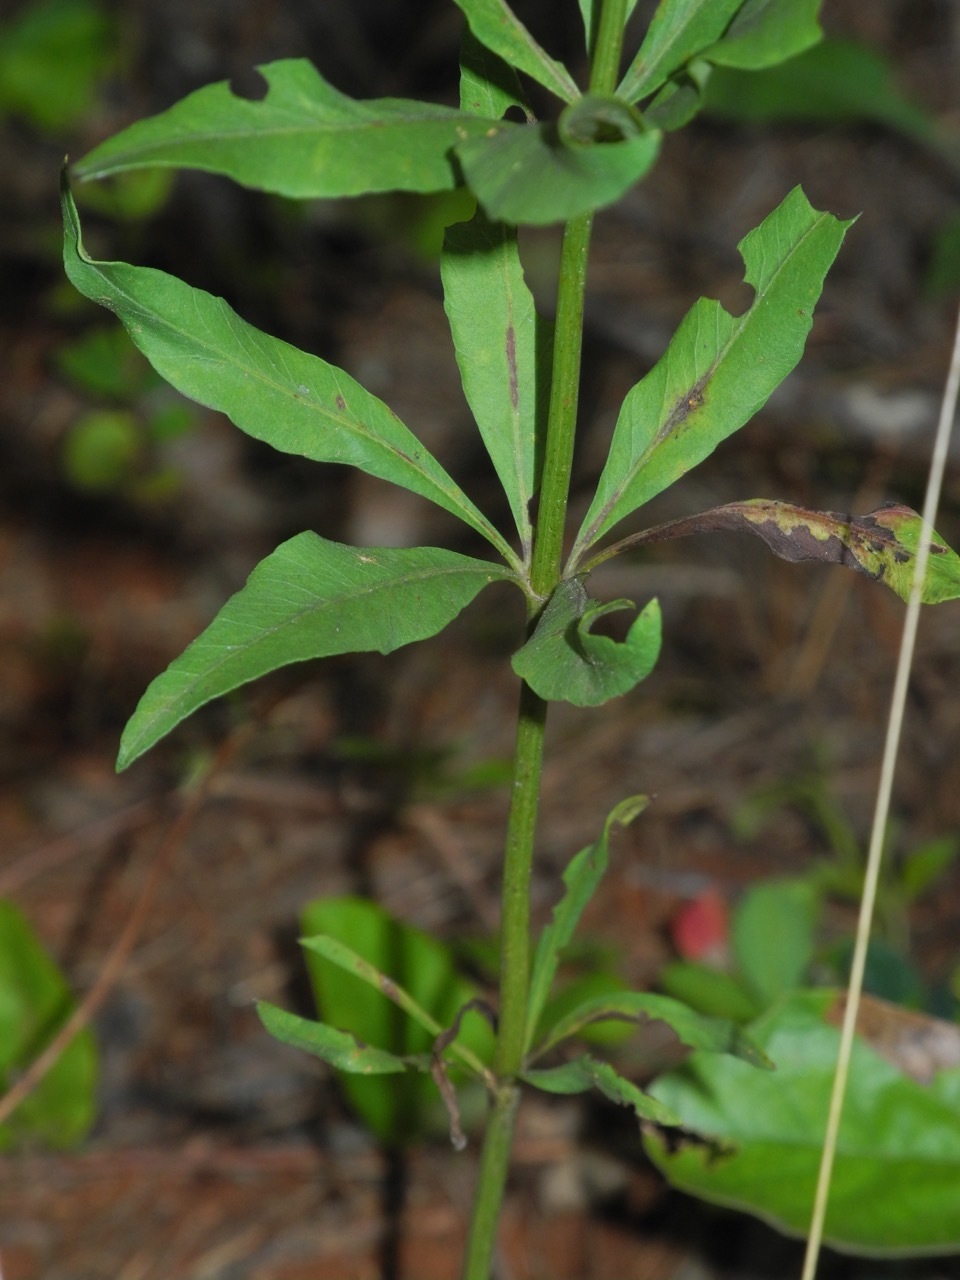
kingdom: Plantae
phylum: Tracheophyta
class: Magnoliopsida
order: Asterales
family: Asteraceae
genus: Coreopsis
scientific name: Coreopsis major
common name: Forest tickseed
